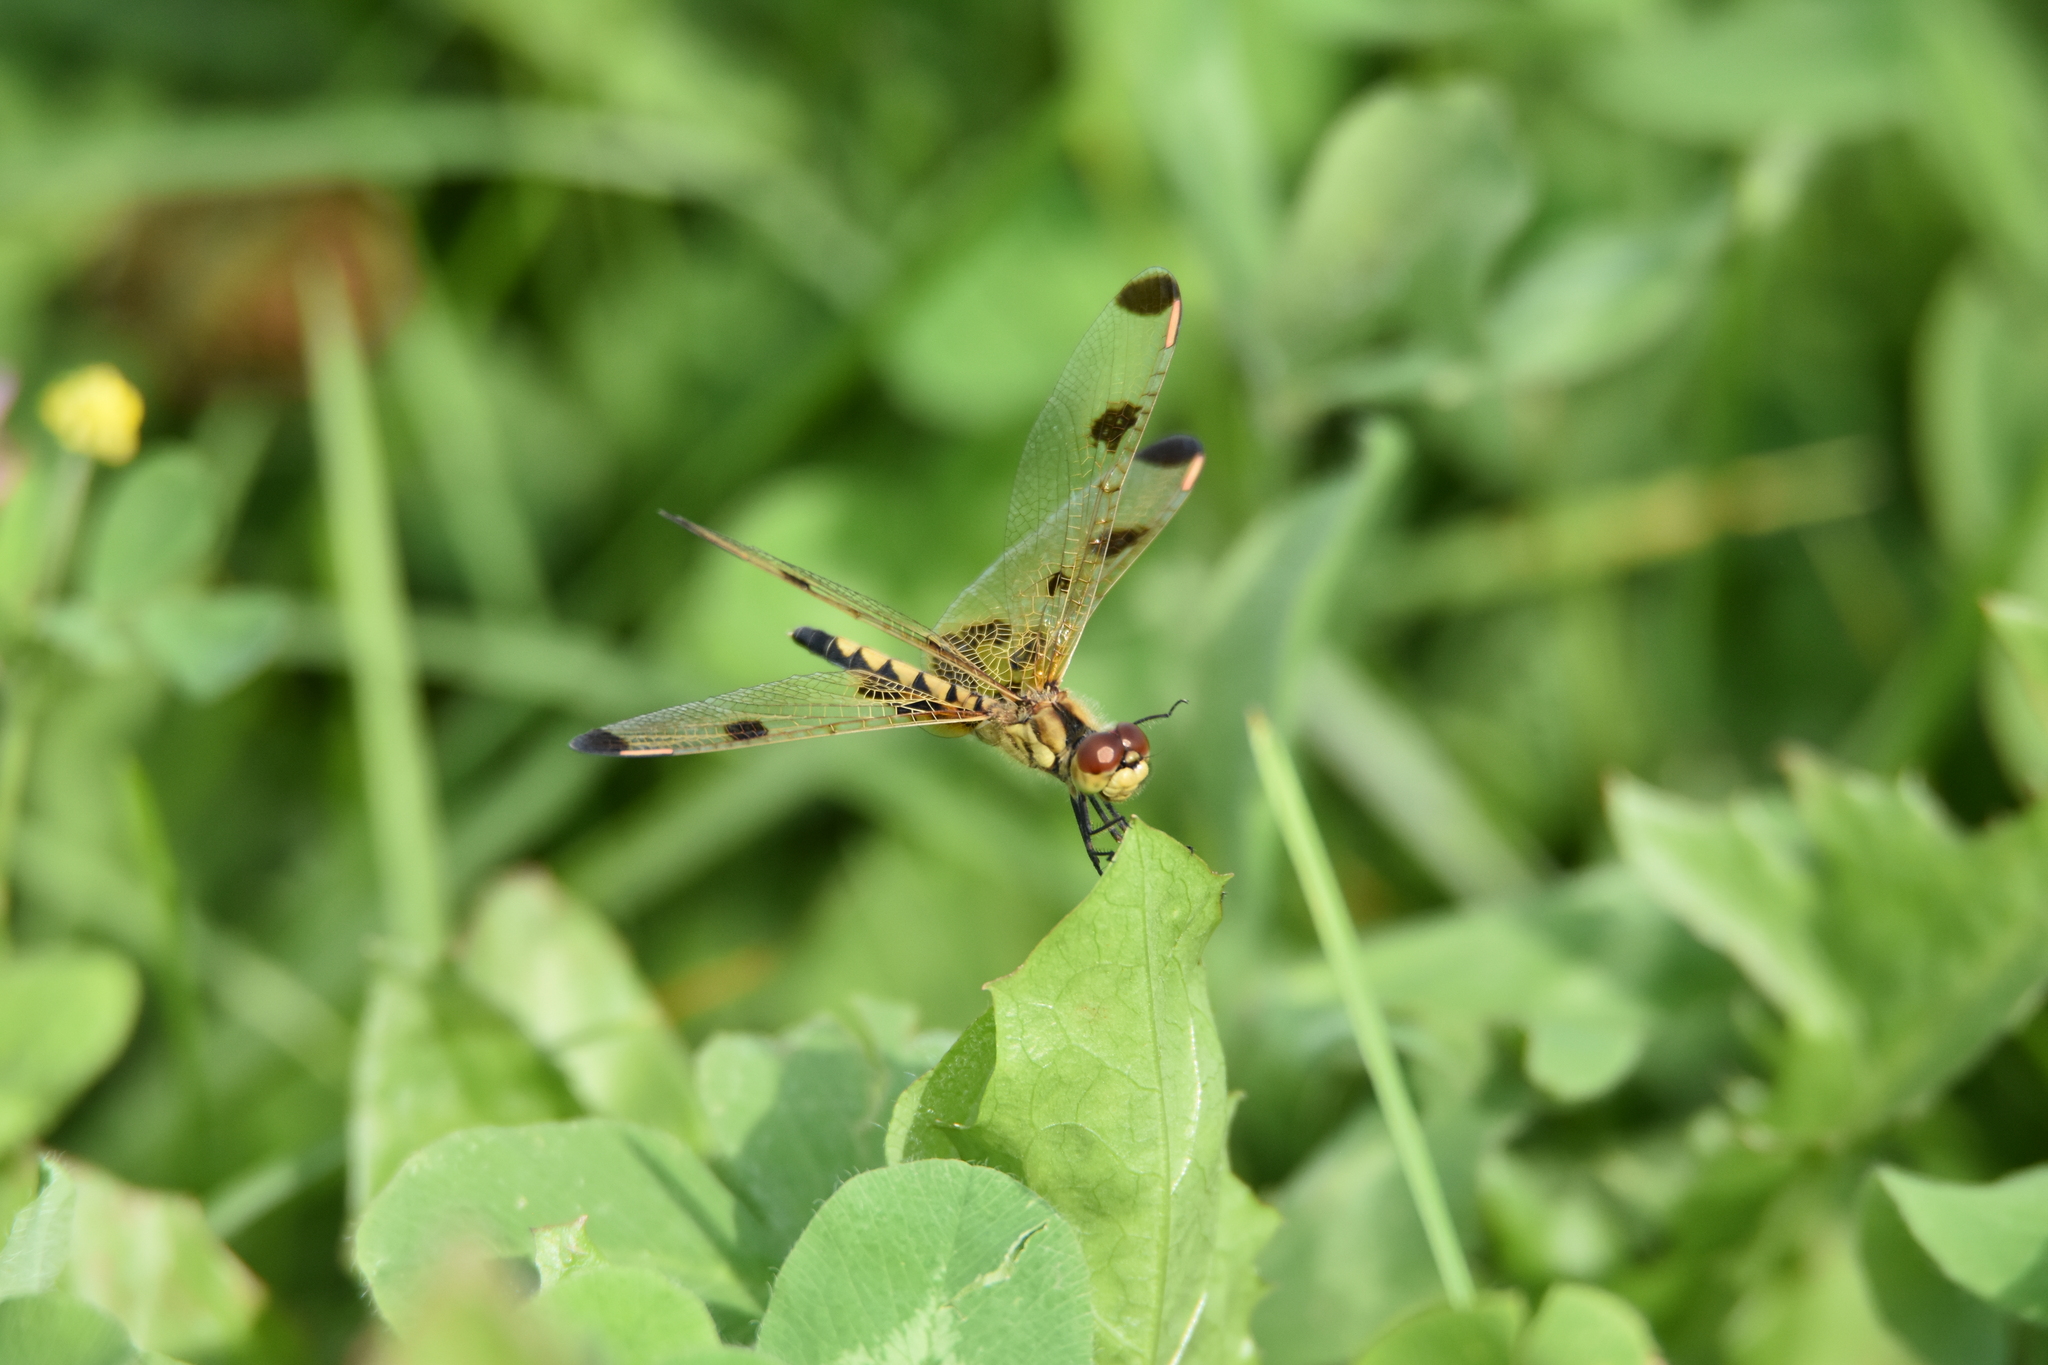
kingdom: Animalia
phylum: Arthropoda
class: Insecta
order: Odonata
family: Libellulidae
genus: Celithemis
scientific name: Celithemis elisa
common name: Calico pennant
